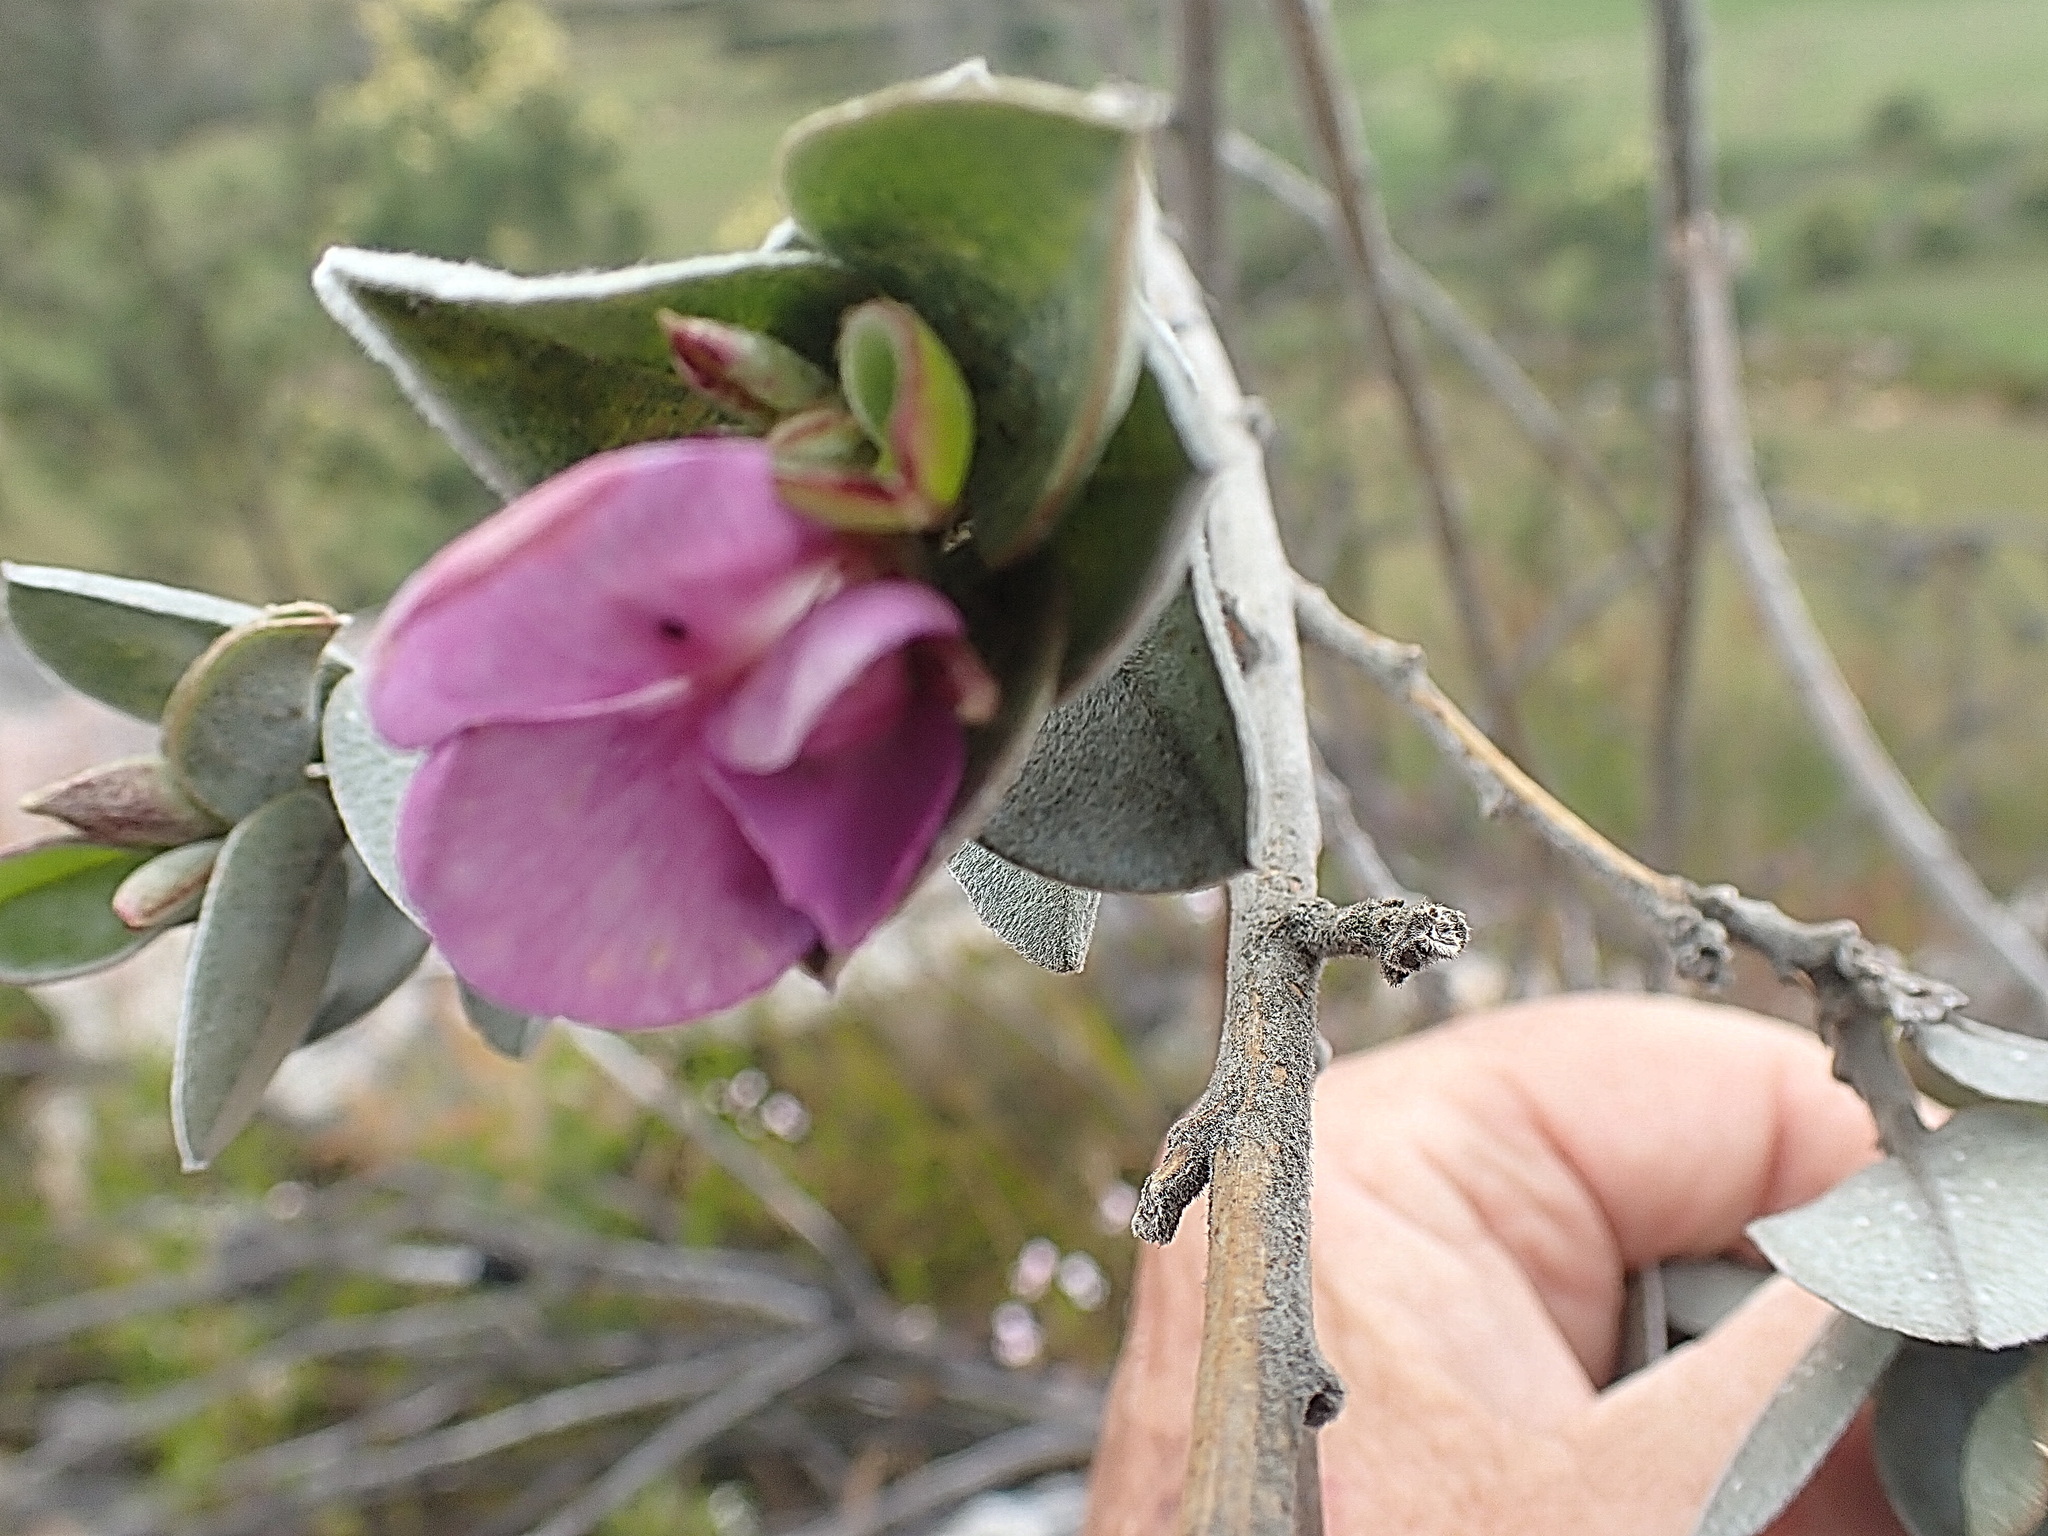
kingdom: Plantae
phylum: Tracheophyta
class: Magnoliopsida
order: Fabales
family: Fabaceae
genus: Podalyria
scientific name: Podalyria hirsuta
